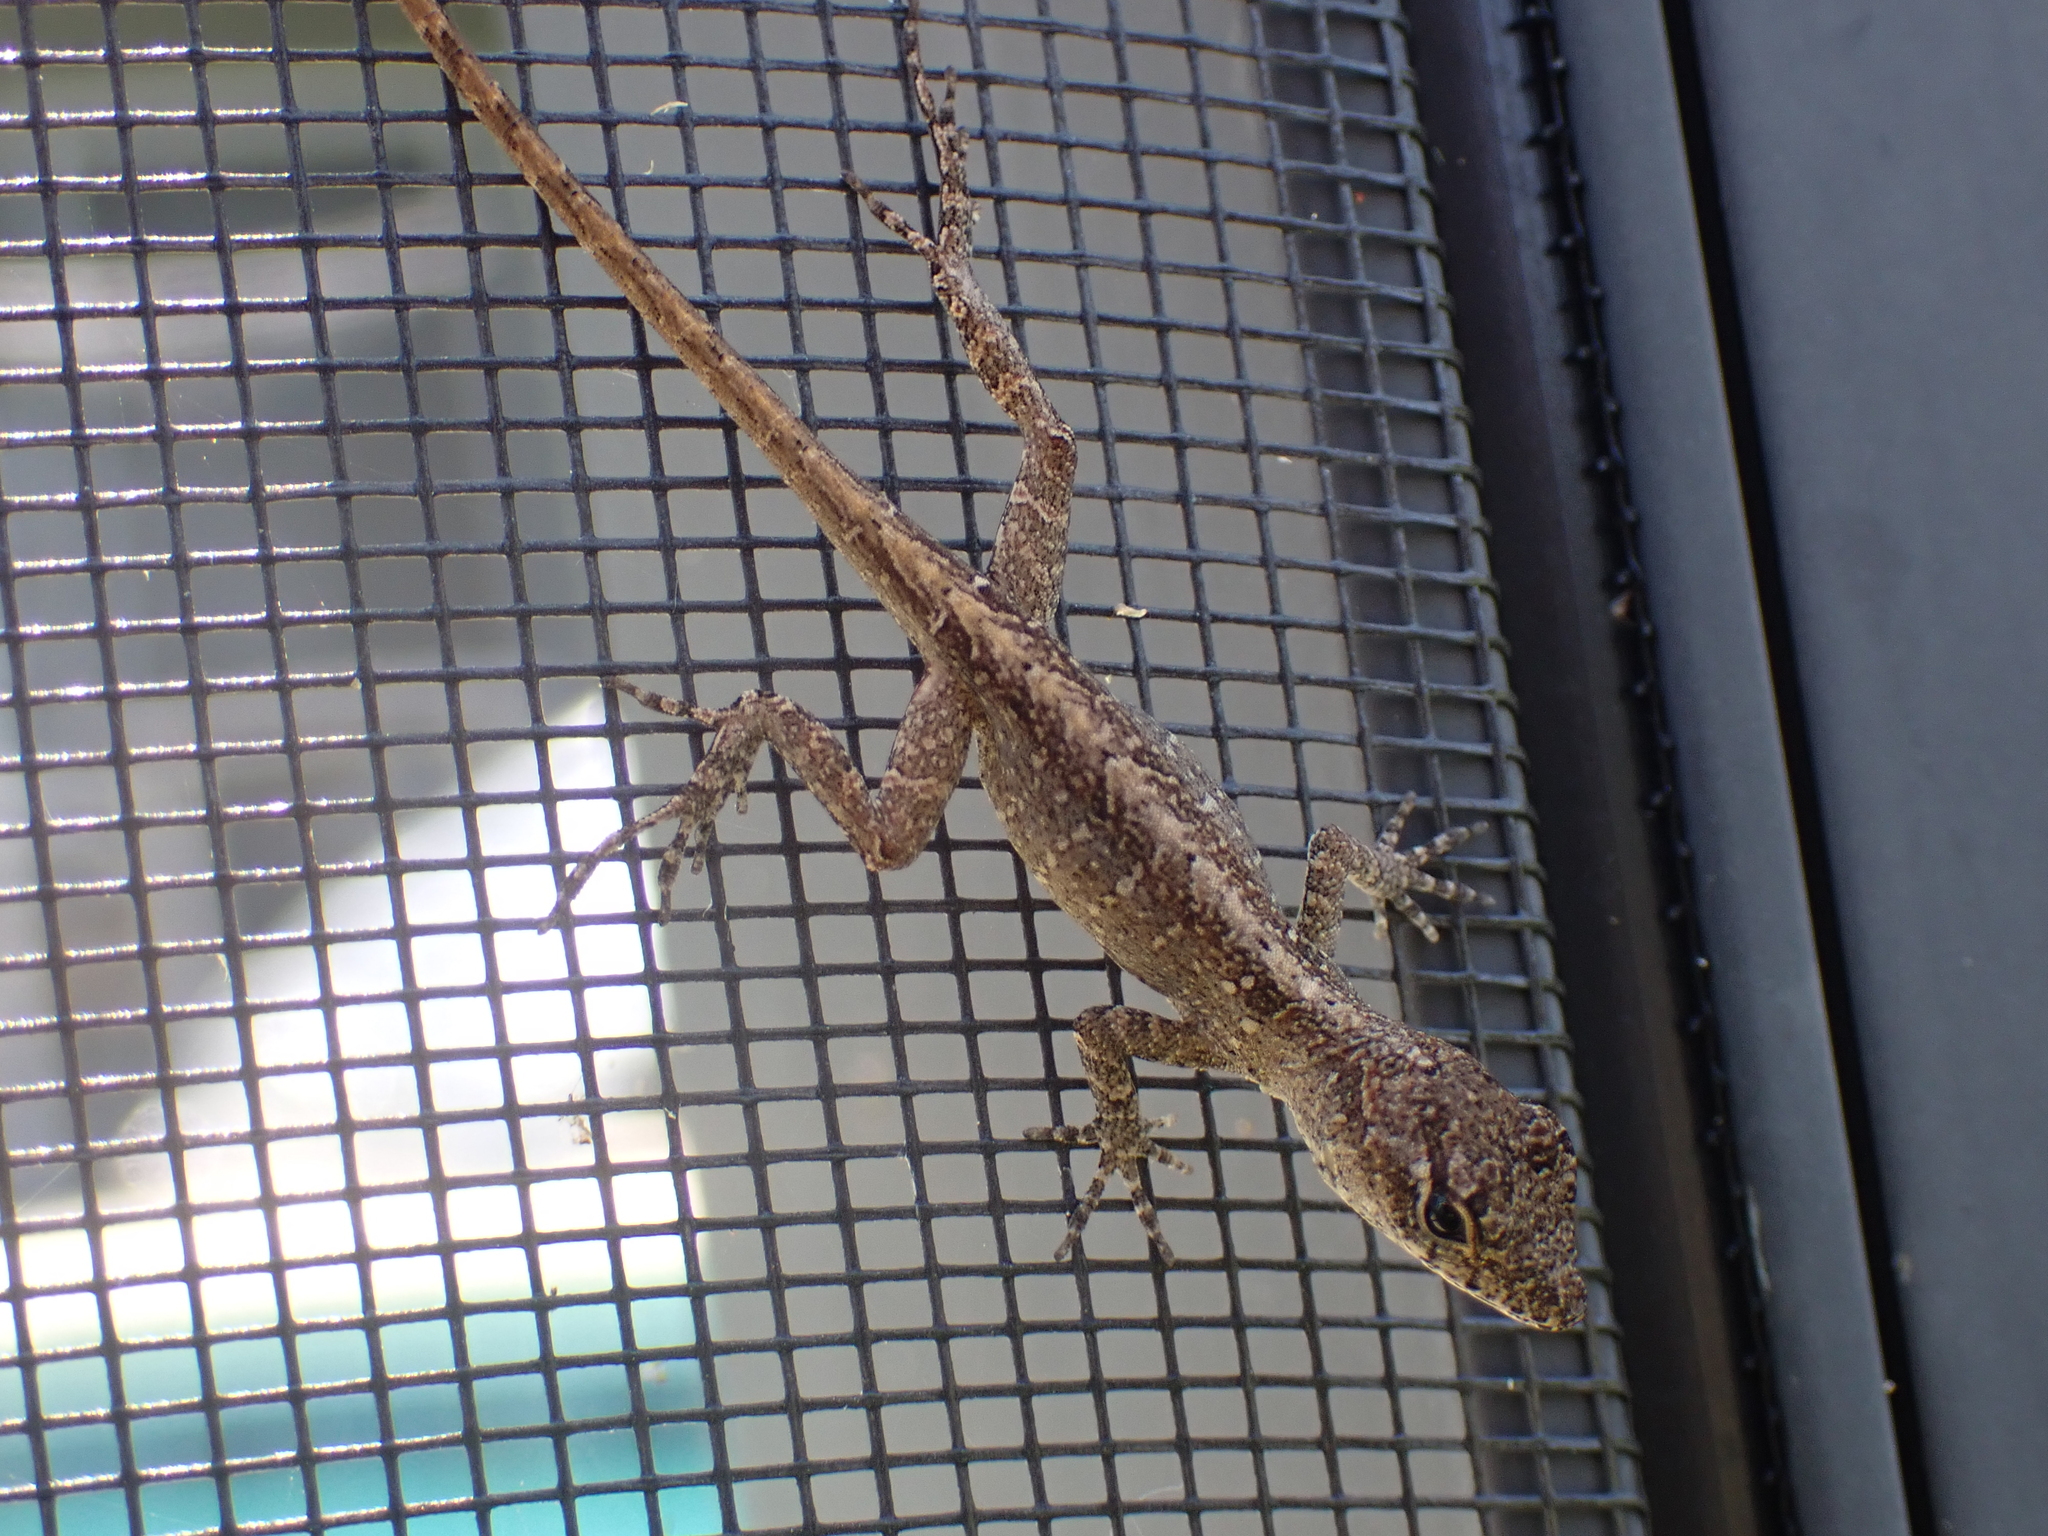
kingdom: Animalia
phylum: Chordata
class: Squamata
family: Dactyloidae
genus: Anolis
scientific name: Anolis sagrei
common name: Brown anole
